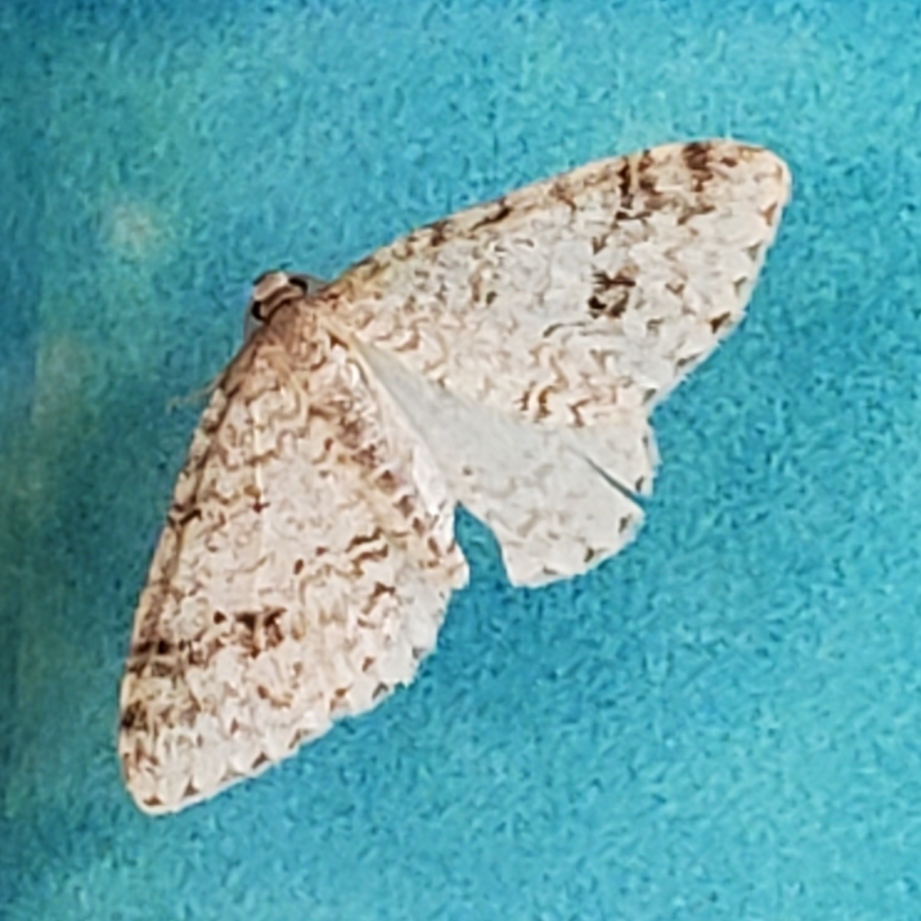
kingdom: Animalia
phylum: Arthropoda
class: Insecta
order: Lepidoptera
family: Geometridae
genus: Venusia
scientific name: Venusia cambrica
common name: Welsh wave
